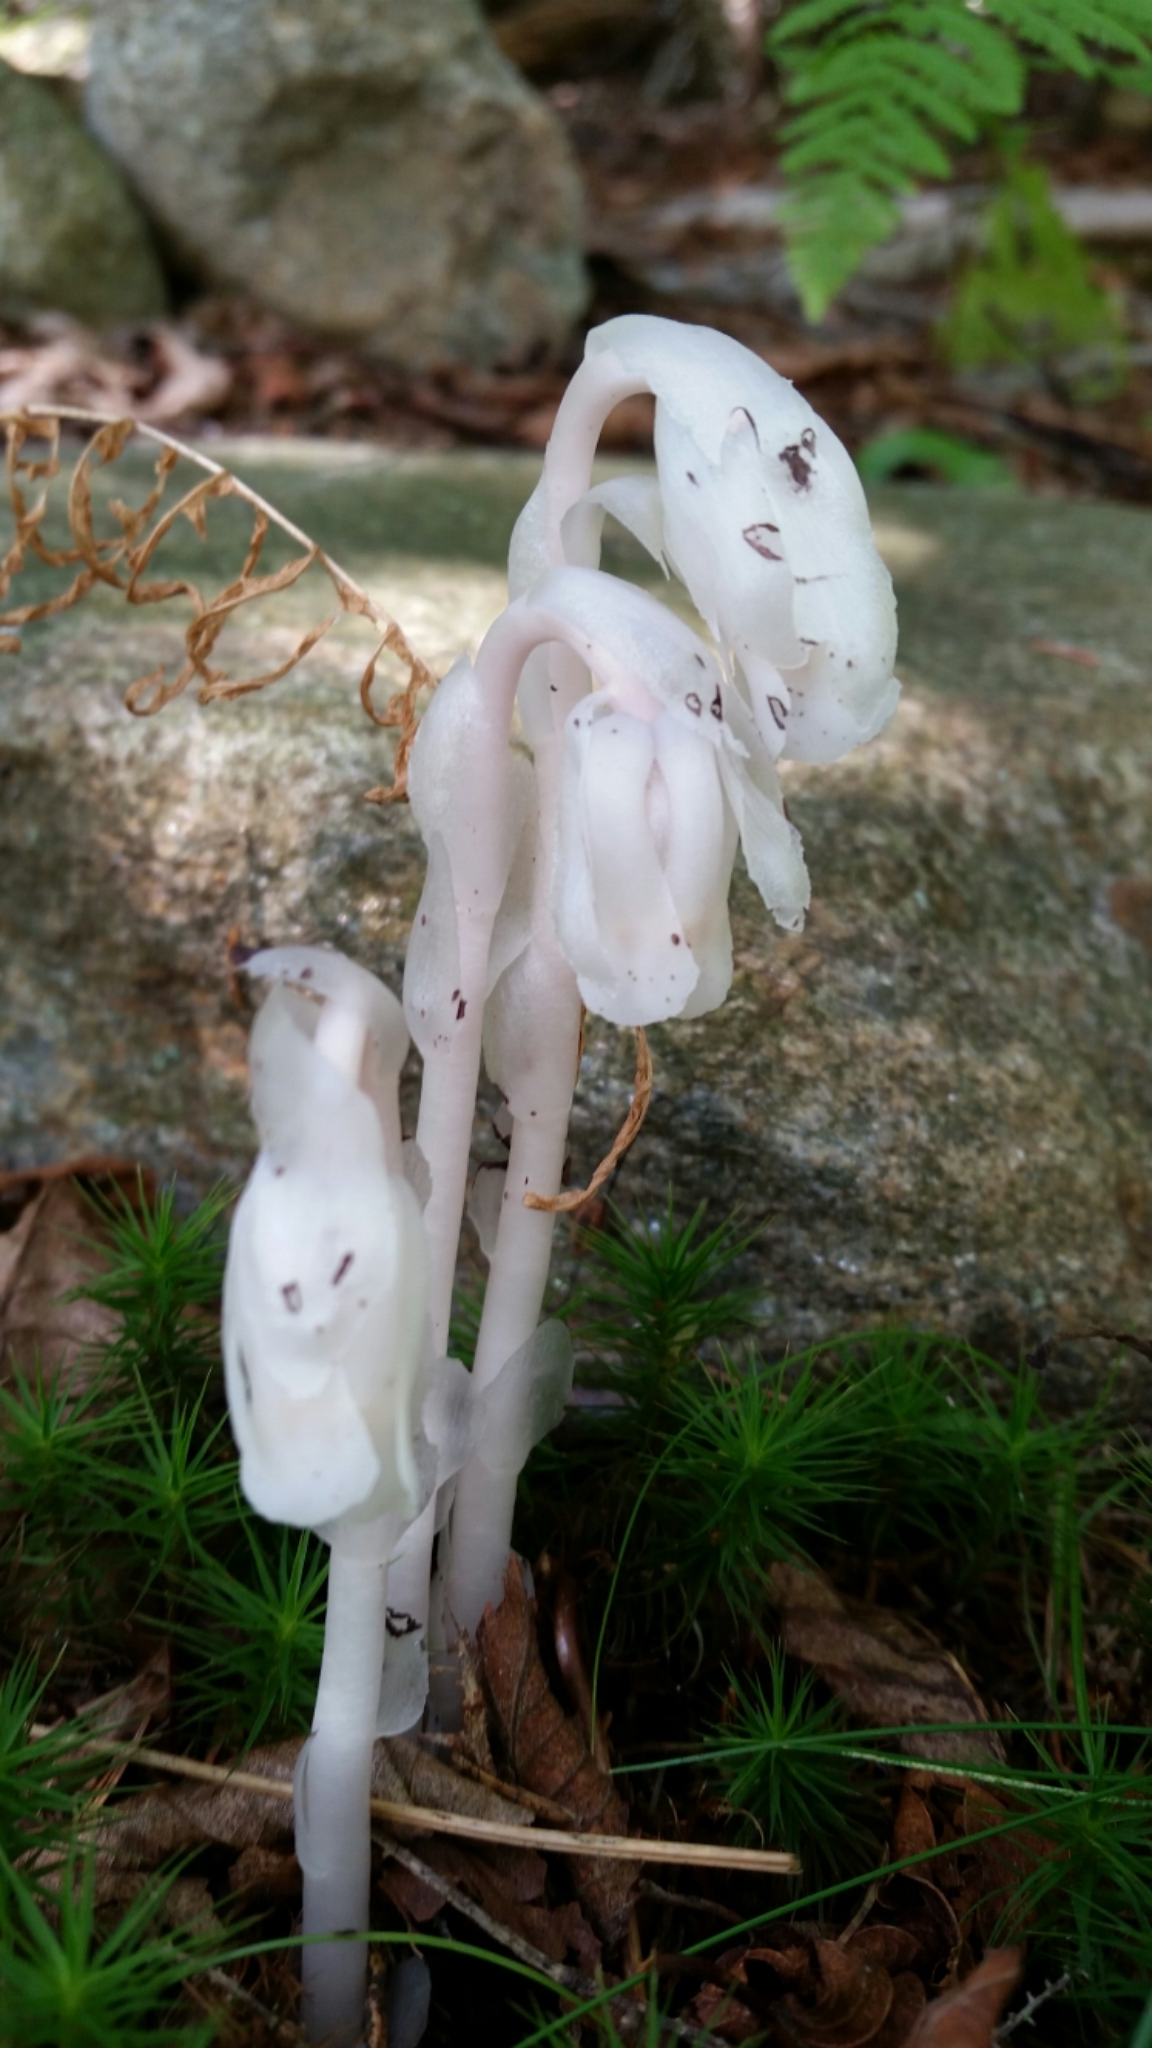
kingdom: Plantae
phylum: Tracheophyta
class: Magnoliopsida
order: Ericales
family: Ericaceae
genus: Monotropa
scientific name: Monotropa uniflora
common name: Convulsion root
